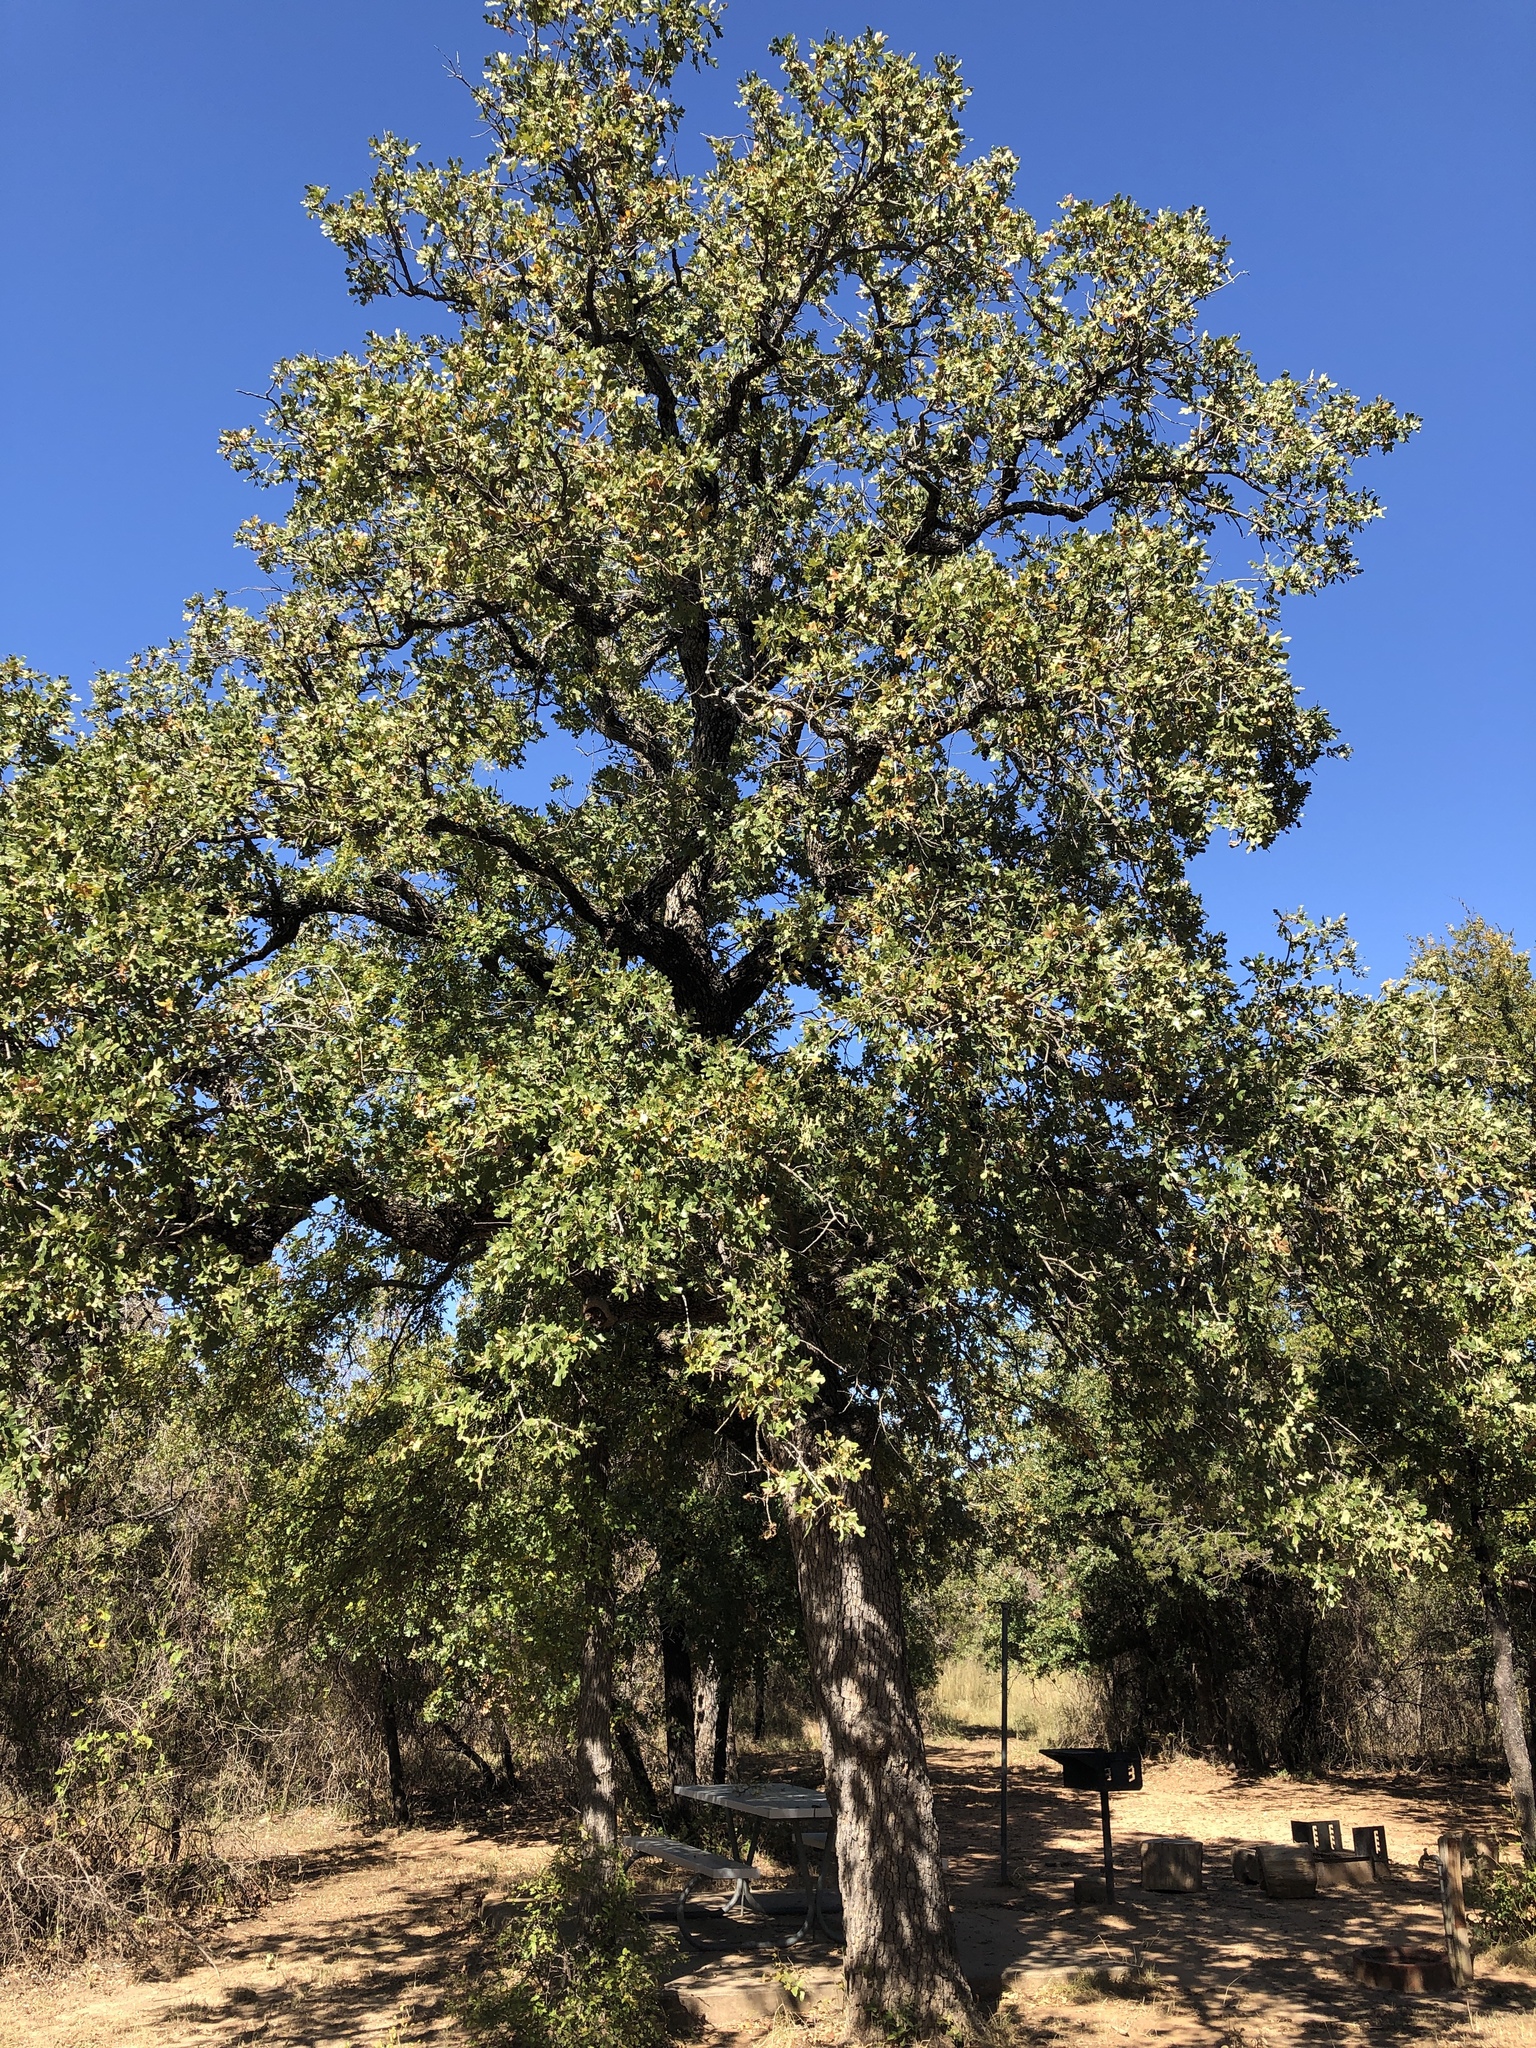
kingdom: Plantae
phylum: Tracheophyta
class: Magnoliopsida
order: Fagales
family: Fagaceae
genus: Quercus
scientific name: Quercus stellata
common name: Post oak
